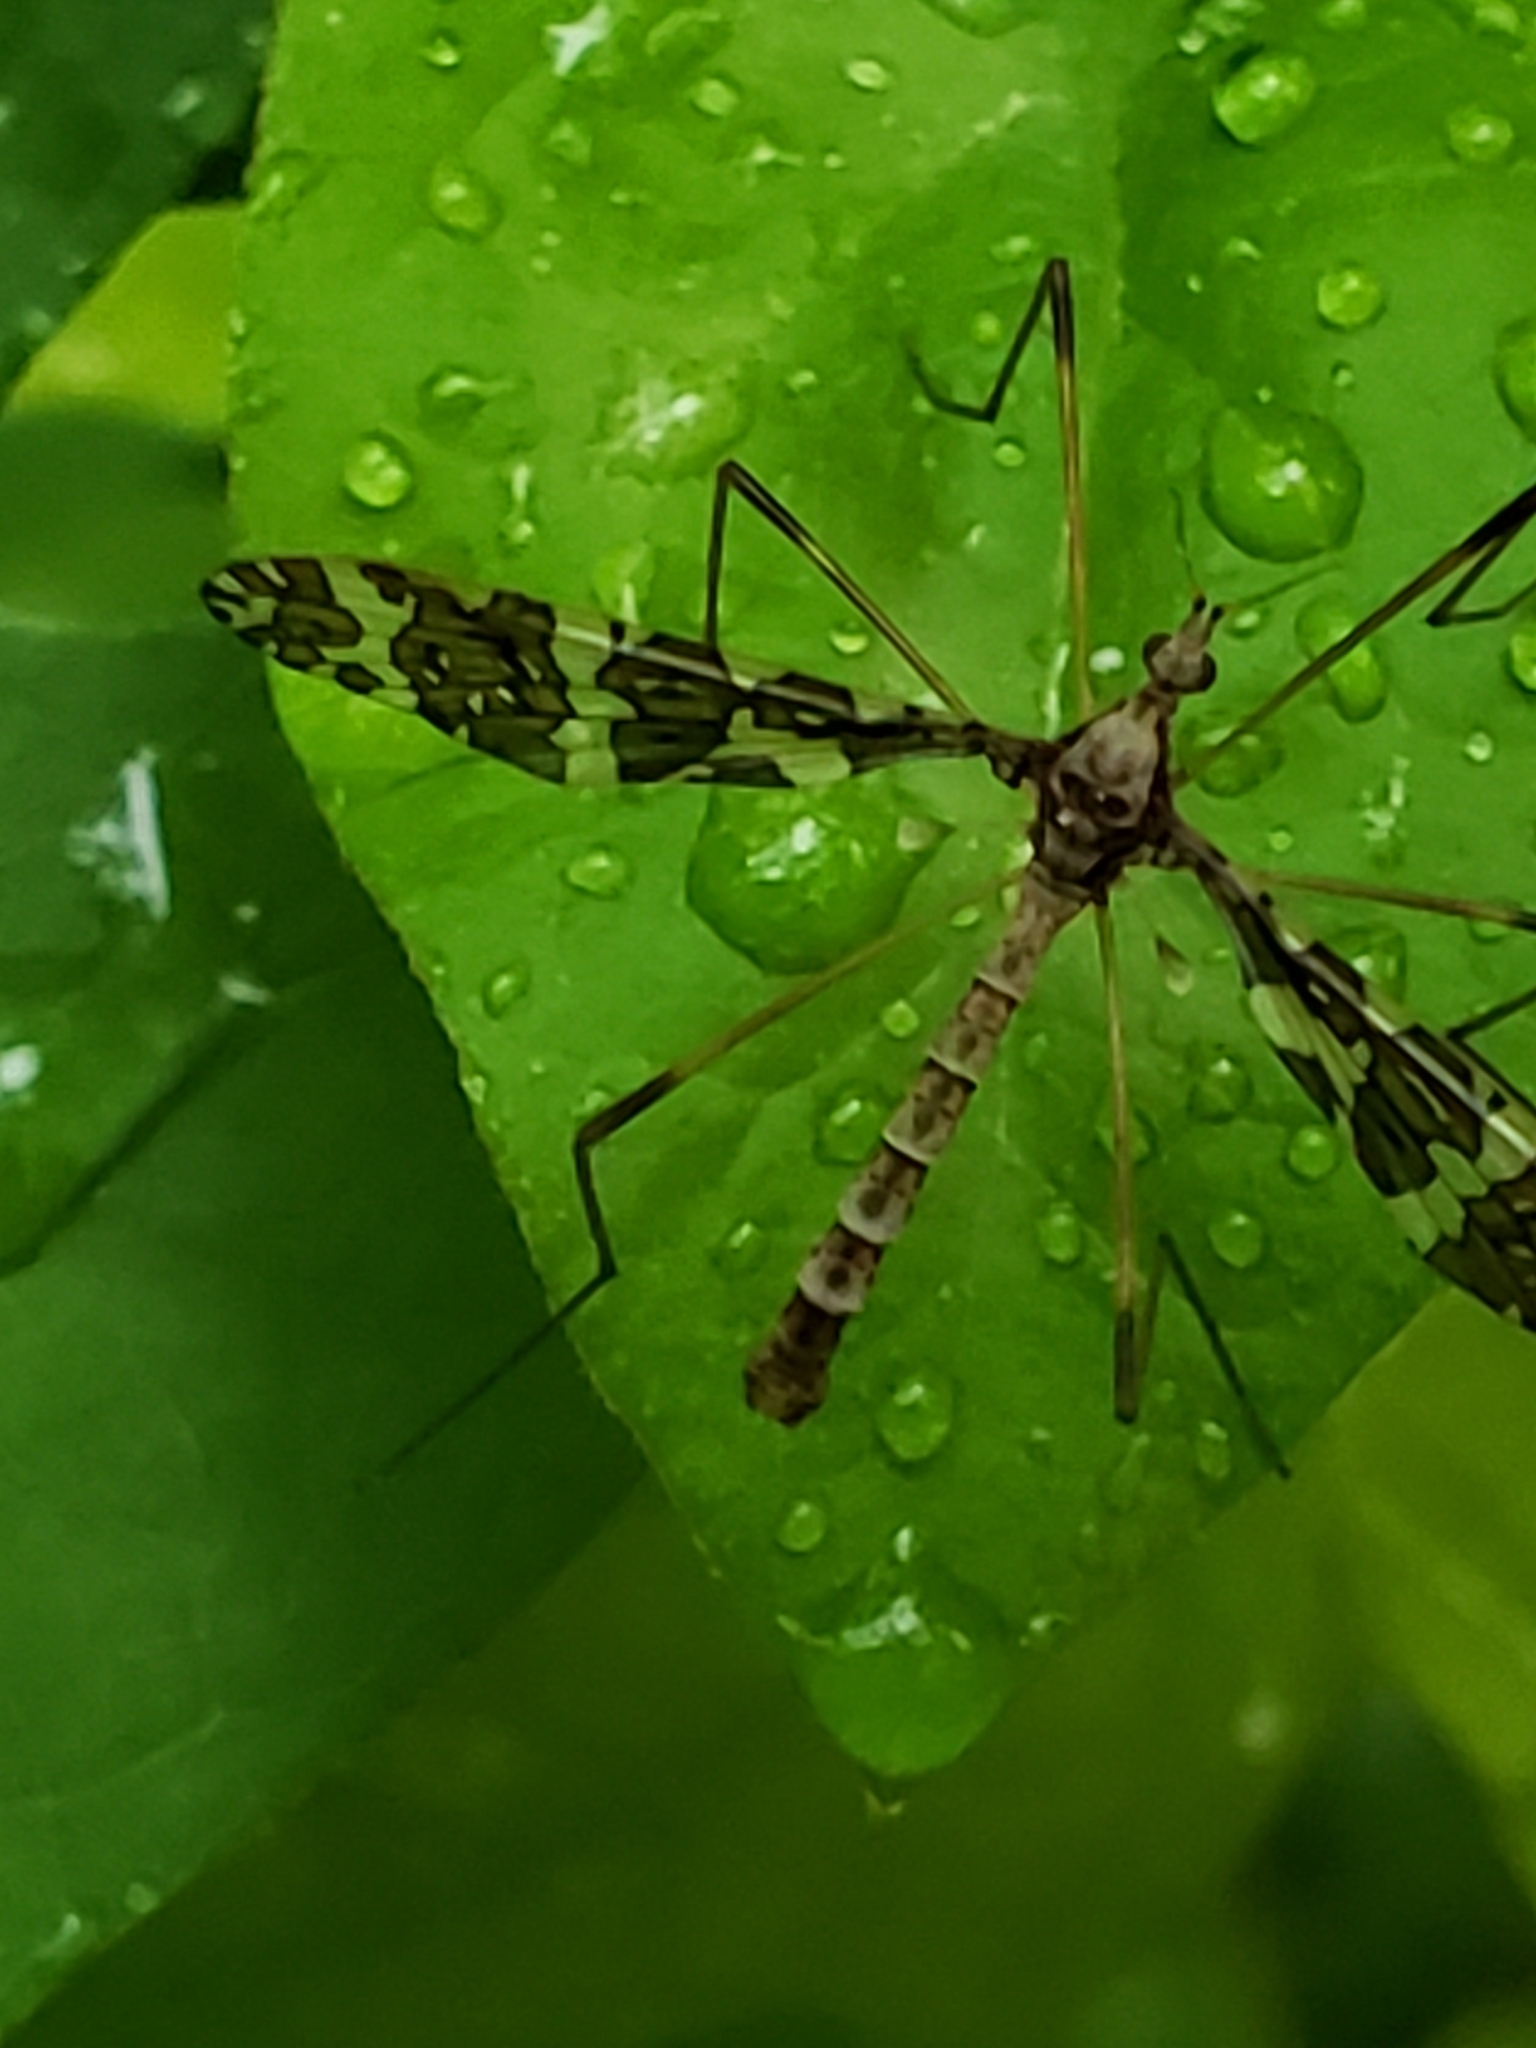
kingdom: Animalia
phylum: Arthropoda
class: Insecta
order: Diptera
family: Limoniidae
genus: Epiphragma
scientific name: Epiphragma fasciapenne
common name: Band-winged crane fly
